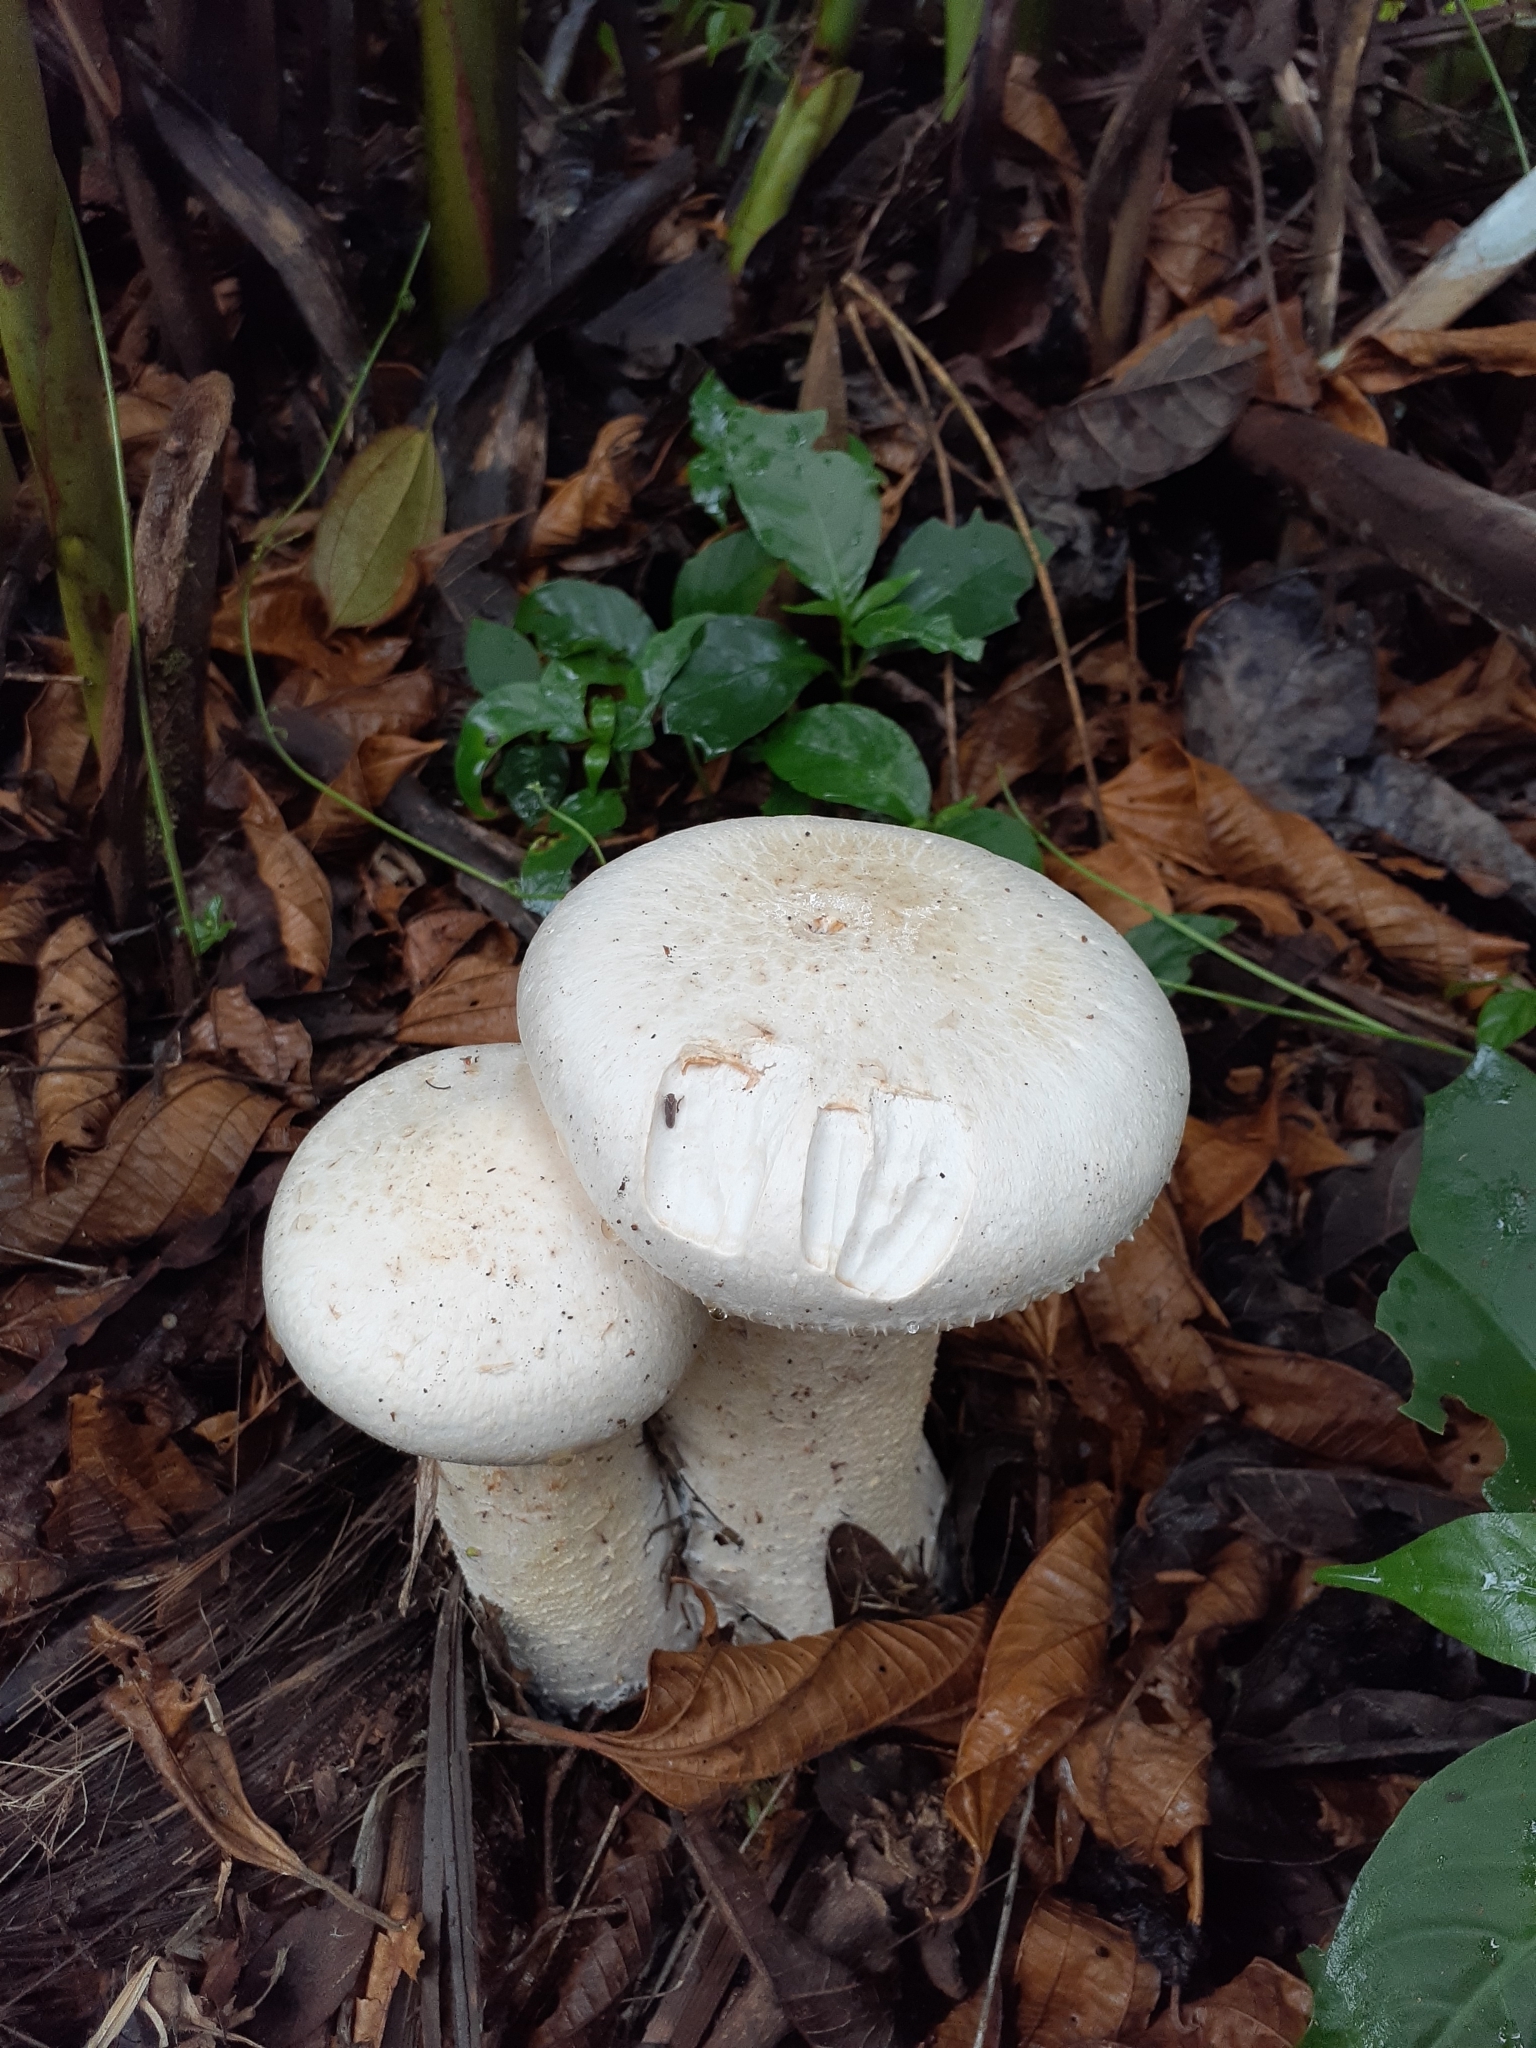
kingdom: Fungi
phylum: Basidiomycota
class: Agaricomycetes
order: Agaricales
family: Callistosporiaceae
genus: Macrocybe
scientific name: Macrocybe titans
